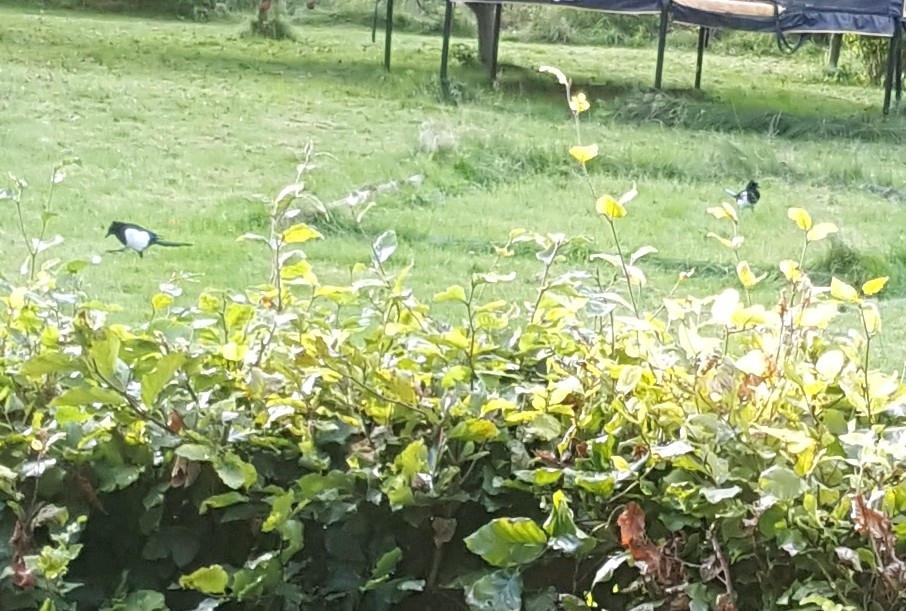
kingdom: Animalia
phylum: Chordata
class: Aves
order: Passeriformes
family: Corvidae
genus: Pica
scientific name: Pica pica
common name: Eurasian magpie
